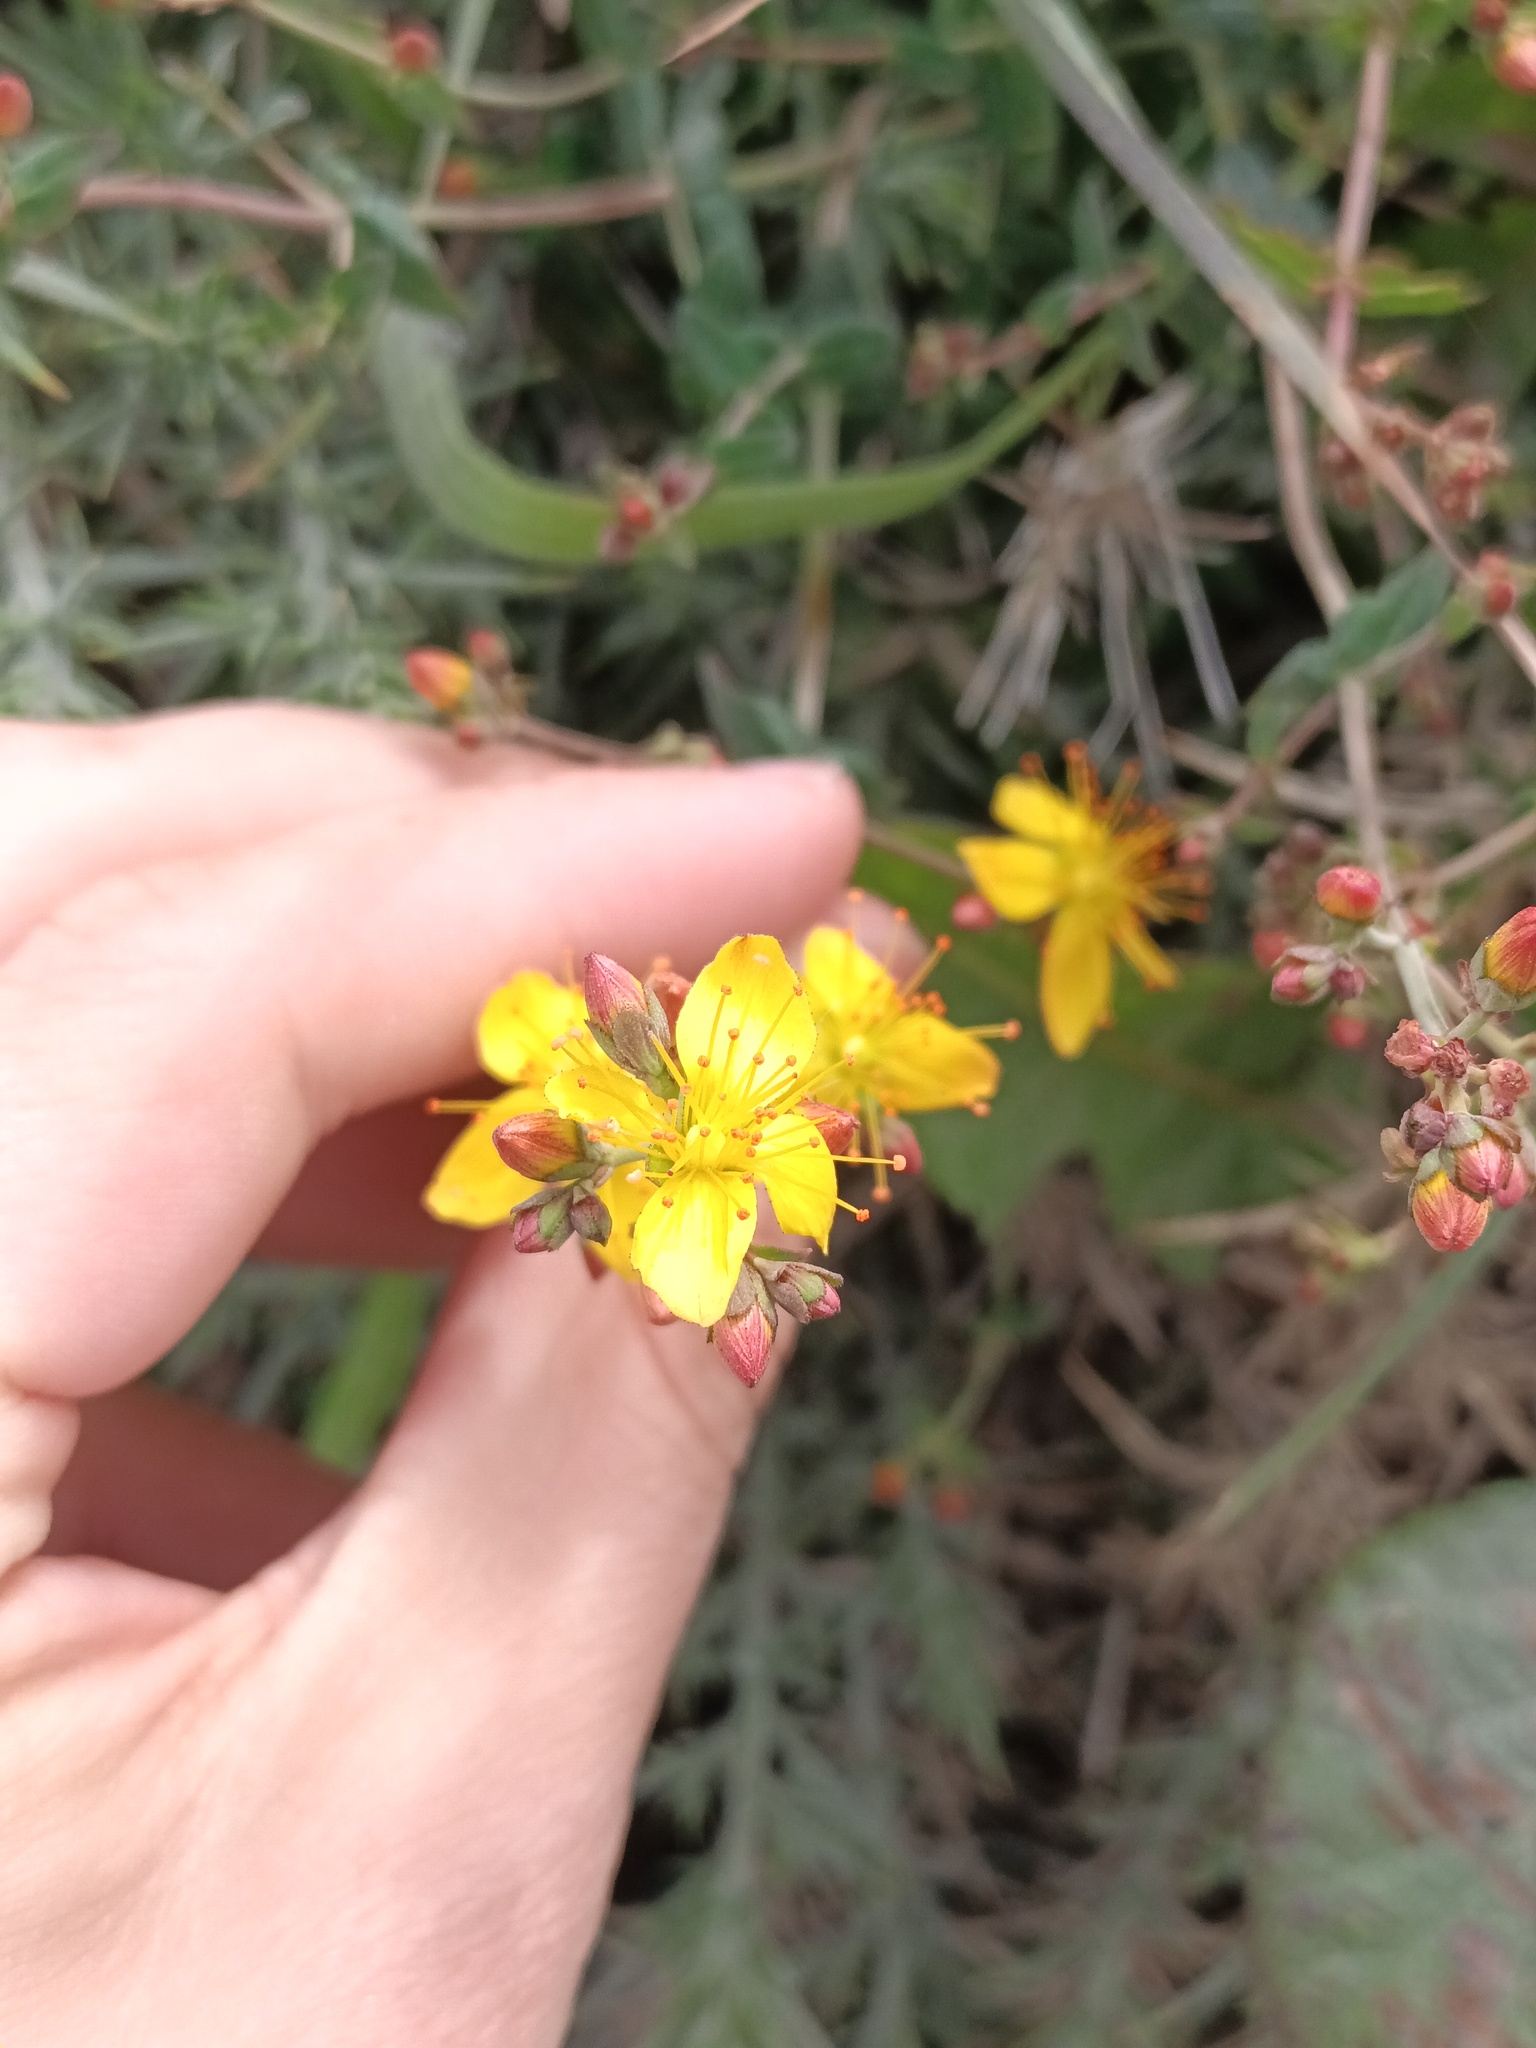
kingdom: Plantae
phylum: Tracheophyta
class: Magnoliopsida
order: Malpighiales
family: Hypericaceae
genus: Hypericum
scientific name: Hypericum pulchrum
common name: Slender st. john's-wort
